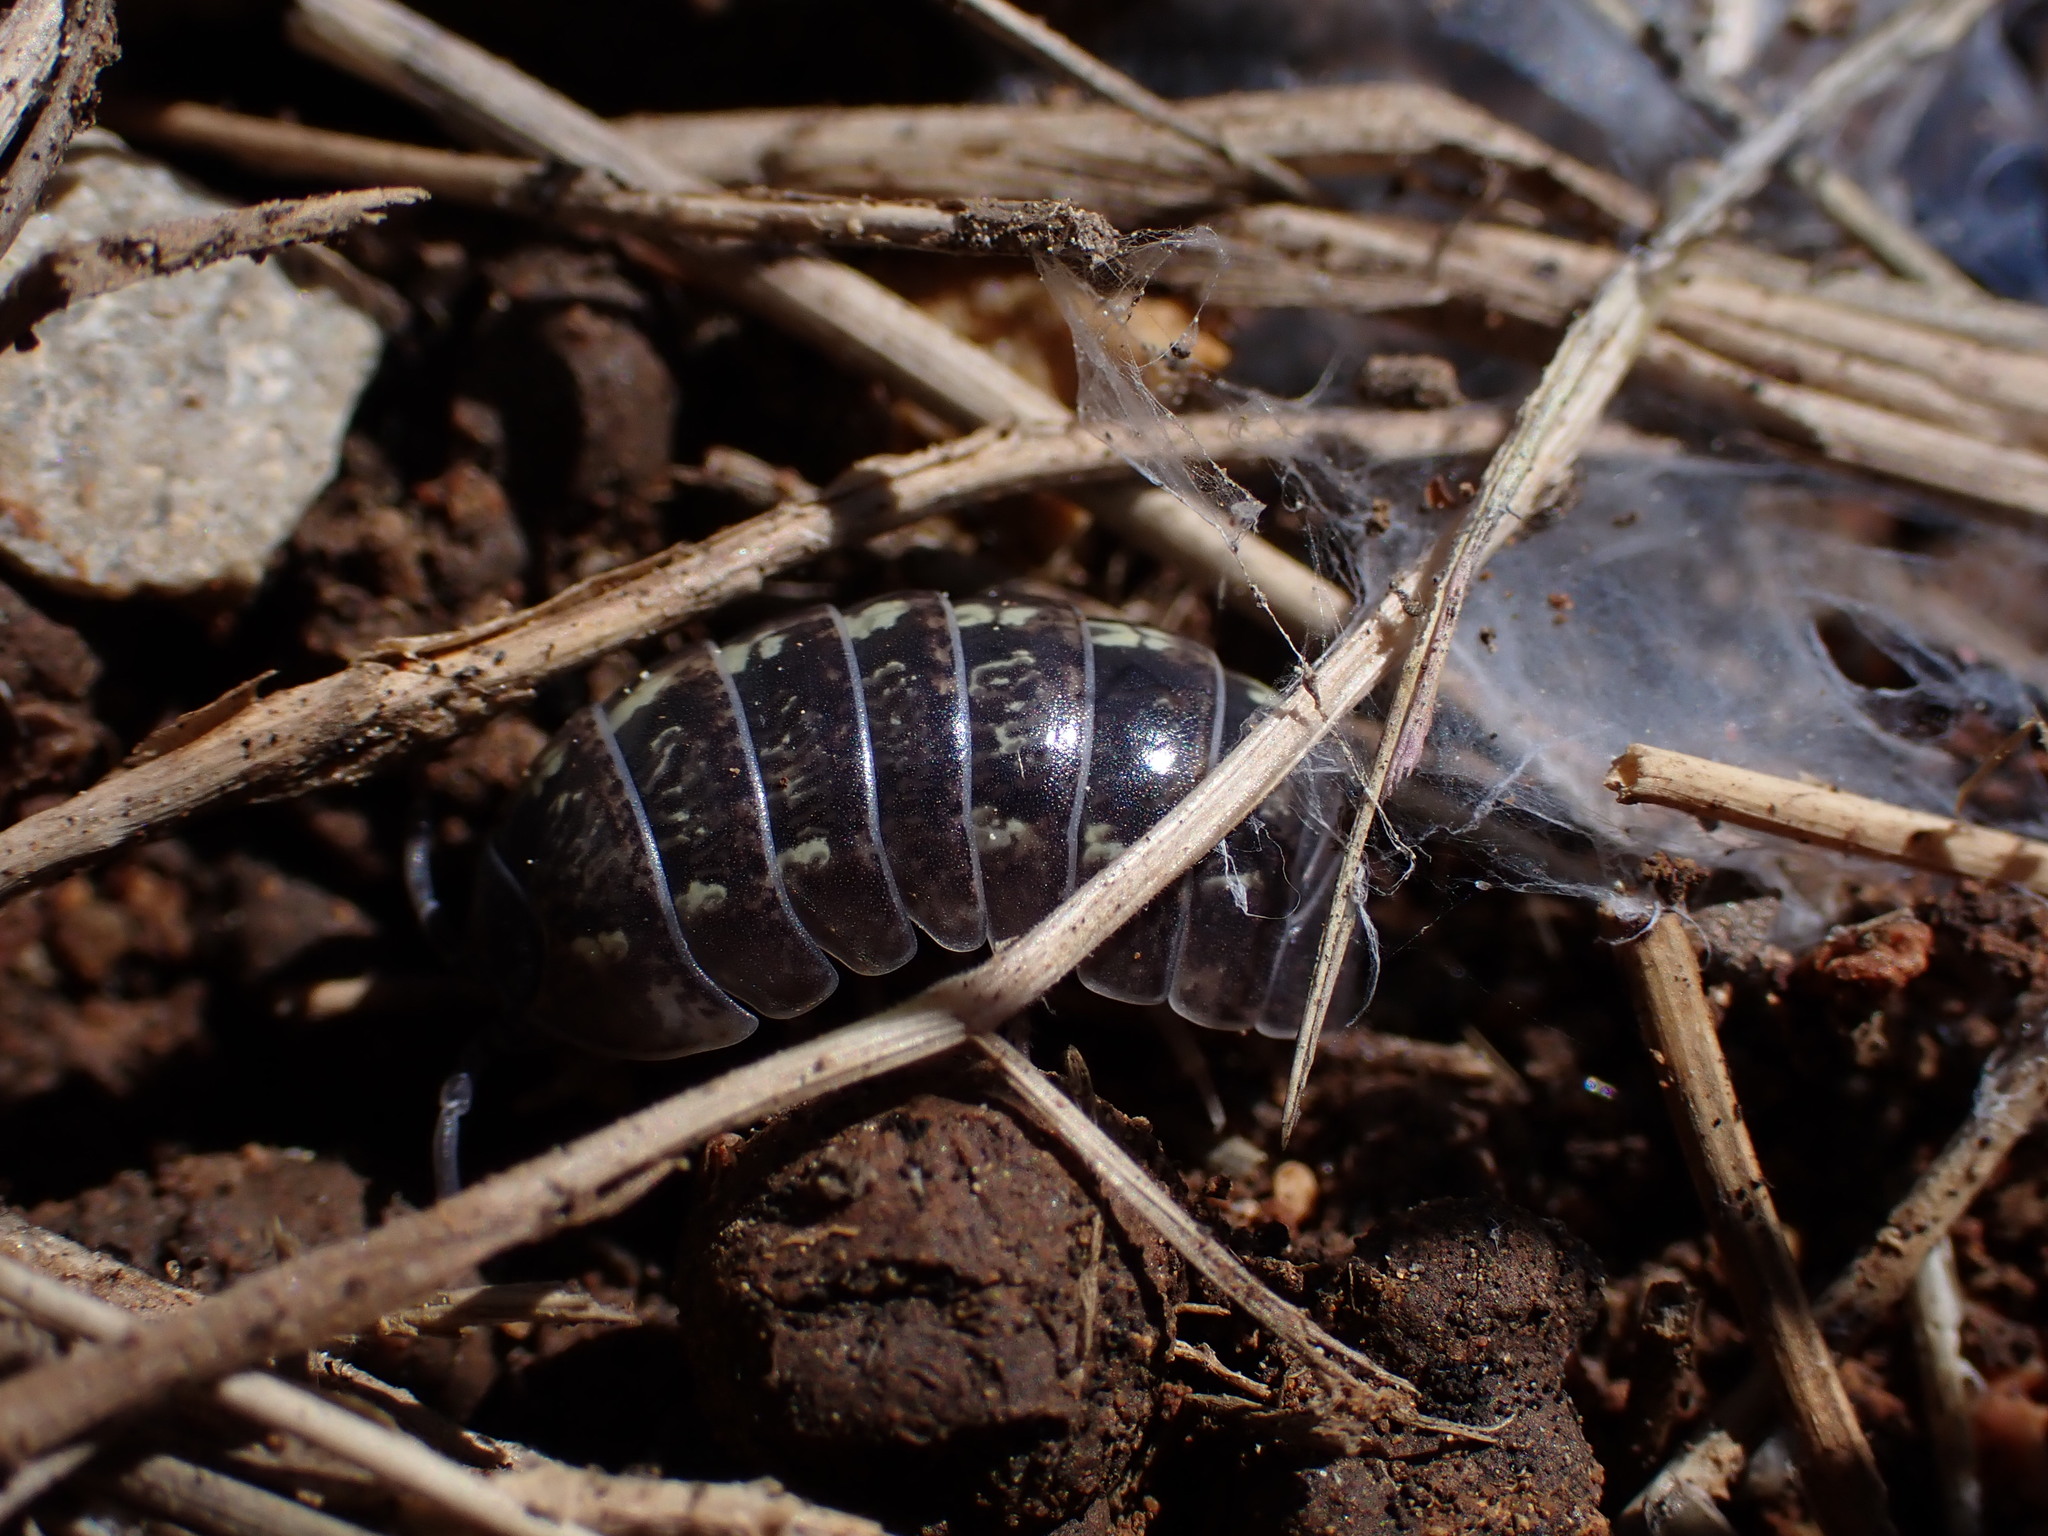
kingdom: Animalia
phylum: Arthropoda
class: Malacostraca
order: Isopoda
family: Armadillidiidae
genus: Armadillidium
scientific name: Armadillidium vulgare
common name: Common pill woodlouse
